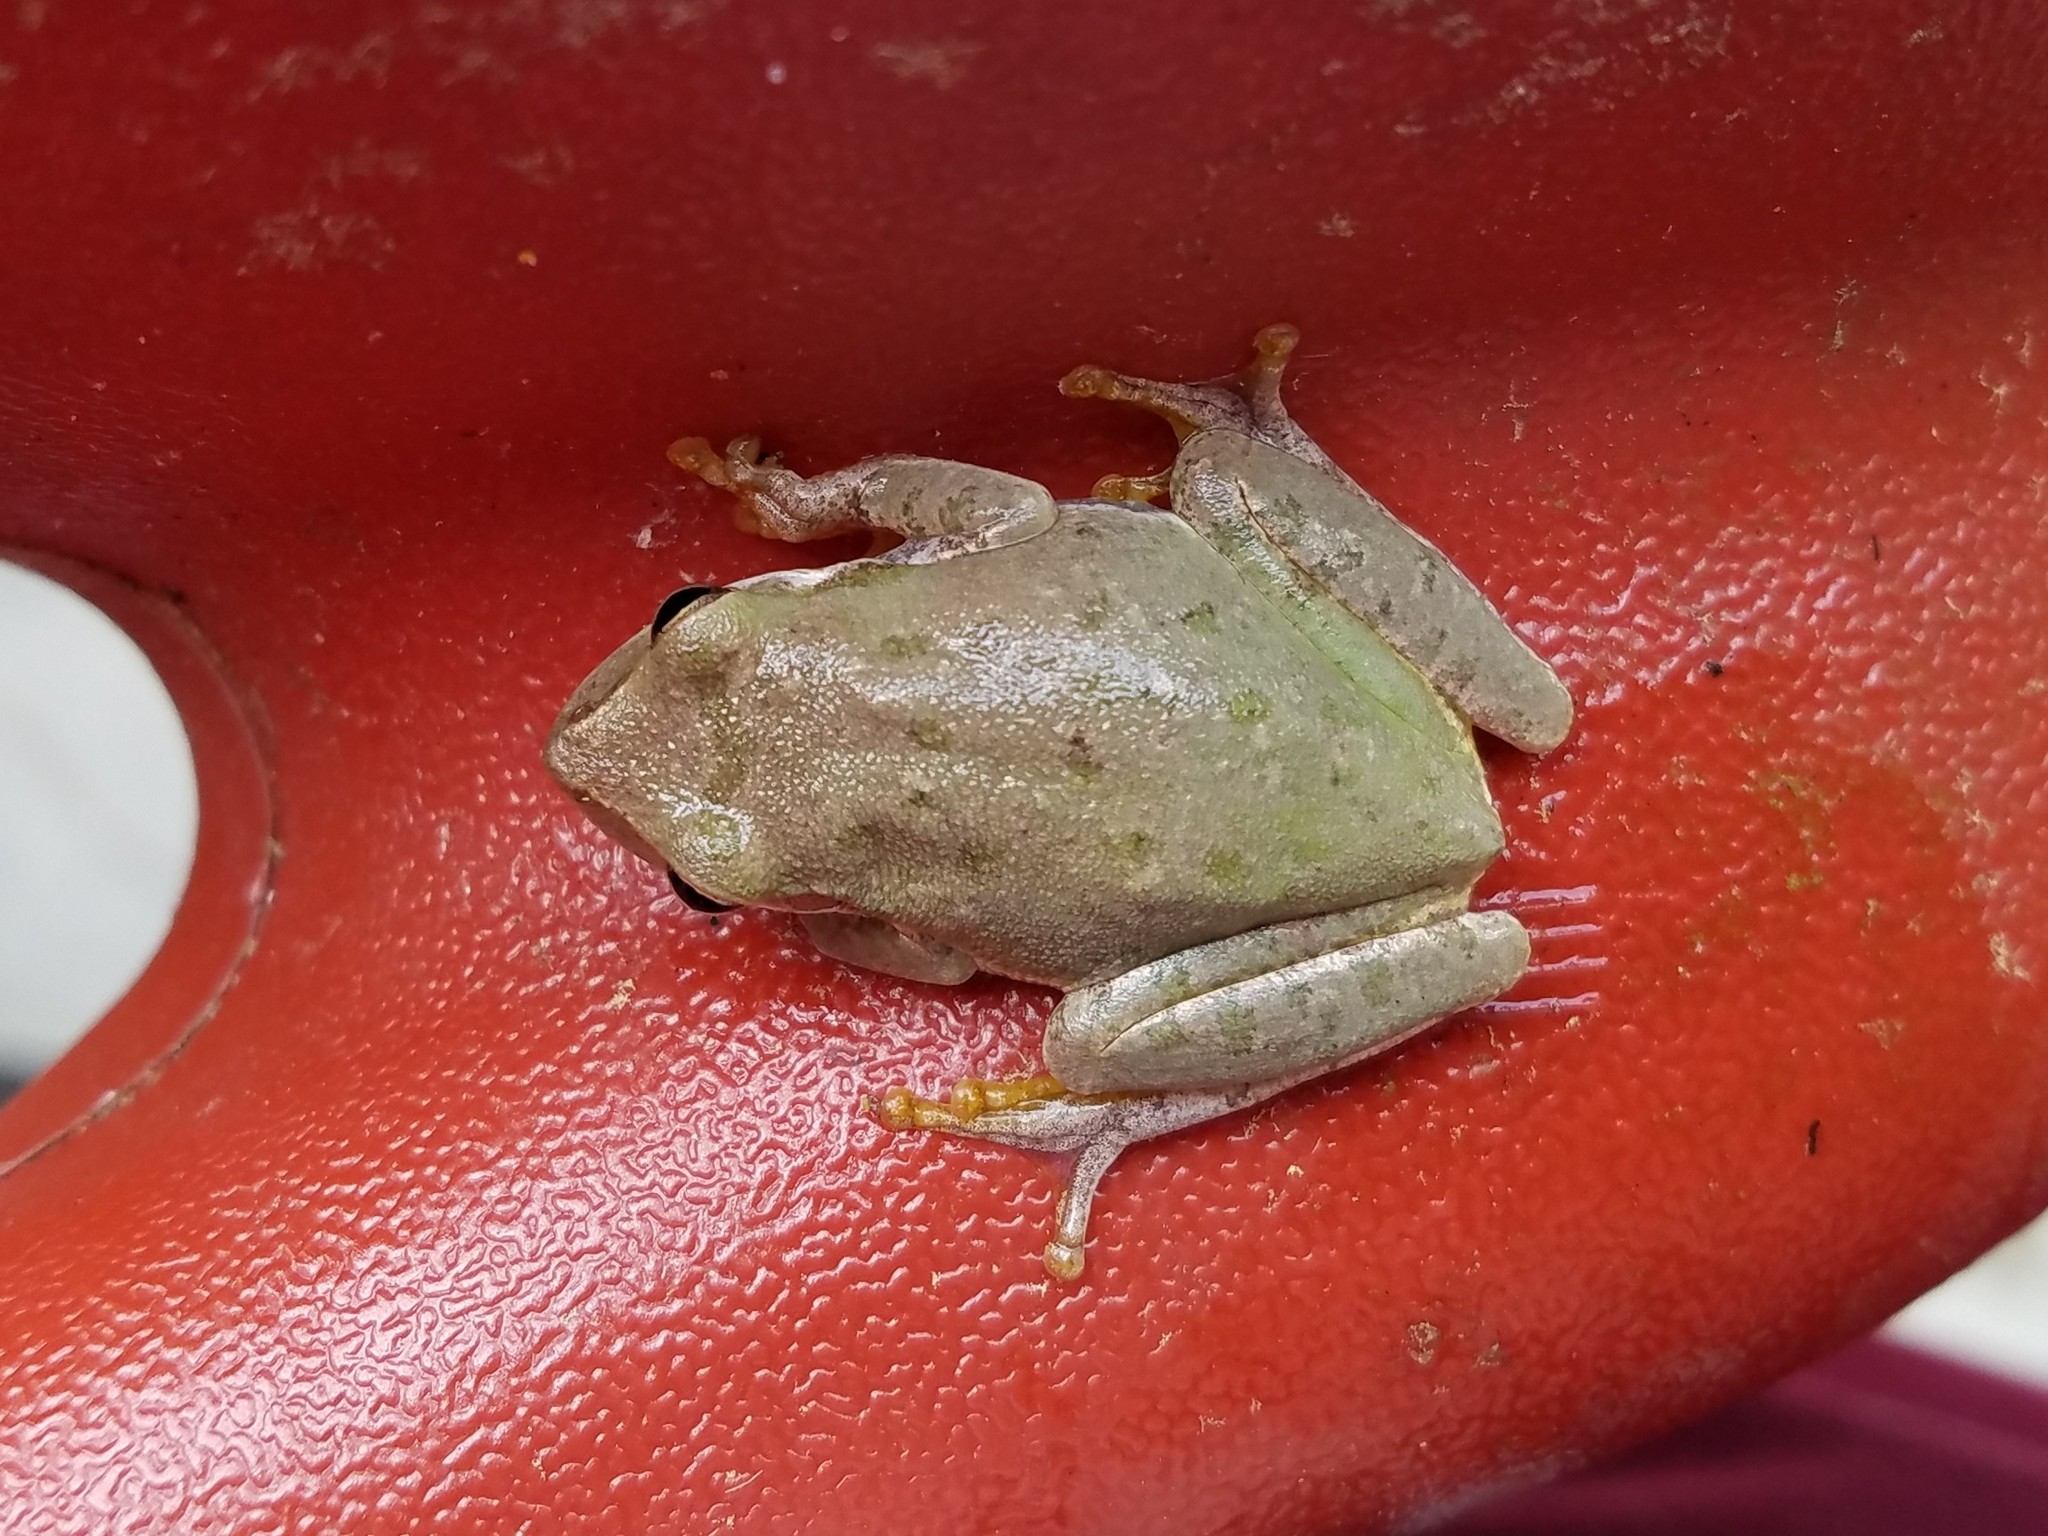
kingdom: Animalia
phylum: Chordata
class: Amphibia
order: Anura
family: Hylidae
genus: Dryophytes
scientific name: Dryophytes squirellus
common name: Squirrel treefrog
